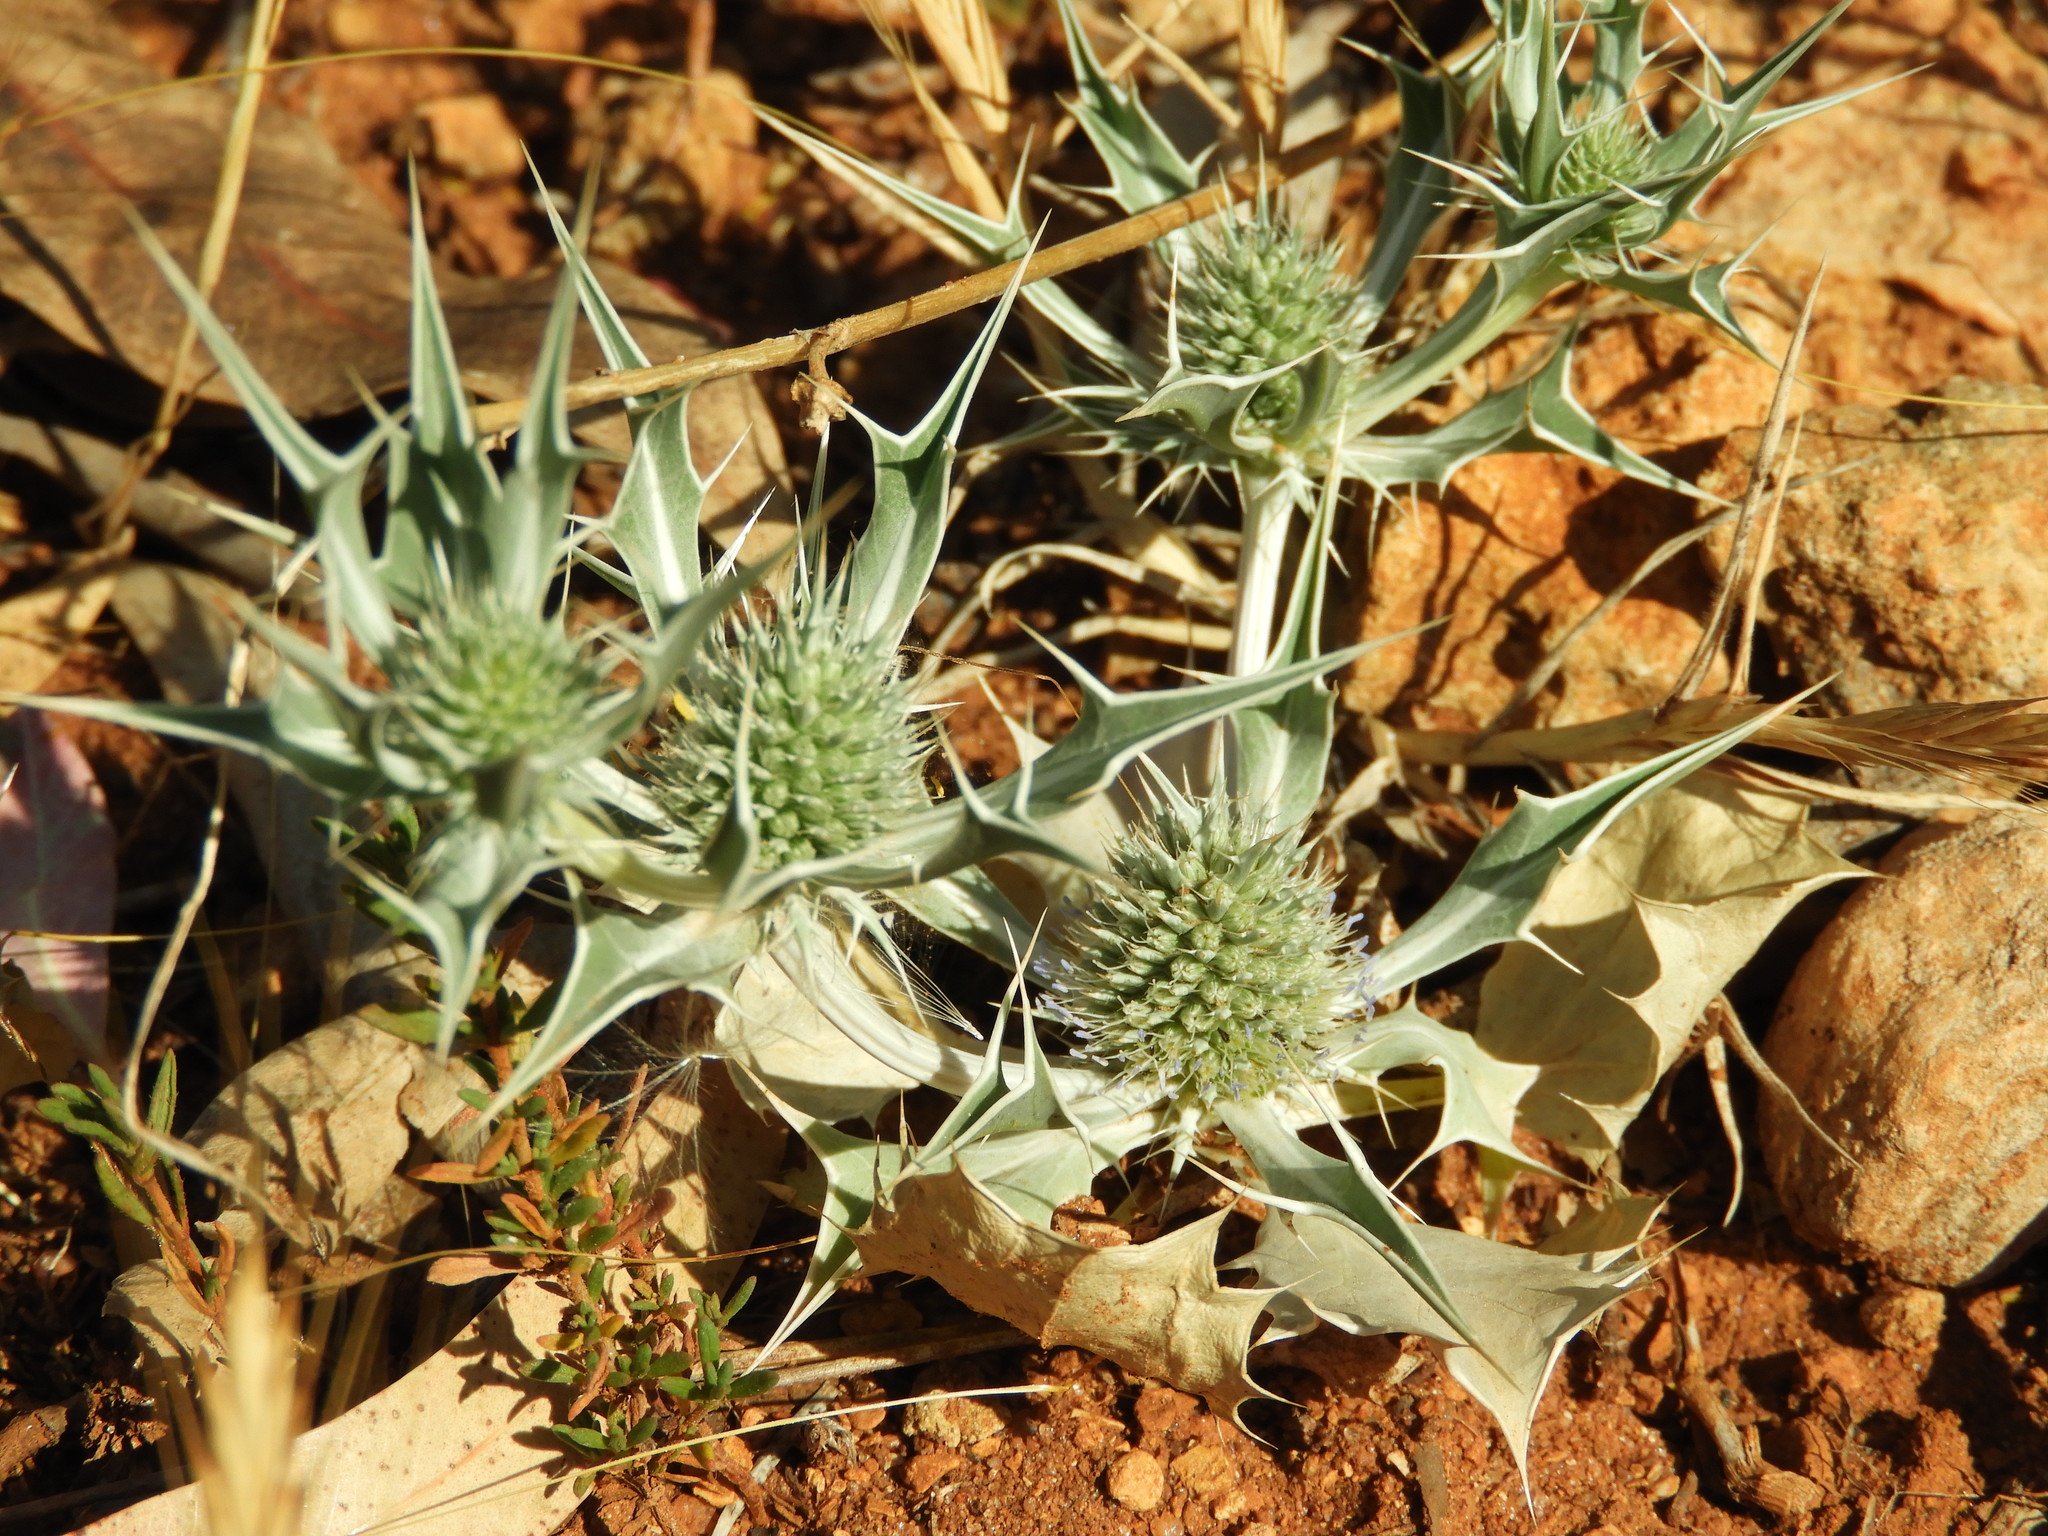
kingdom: Plantae
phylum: Tracheophyta
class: Magnoliopsida
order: Apiales
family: Apiaceae
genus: Eryngium
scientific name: Eryngium ilicifolium
